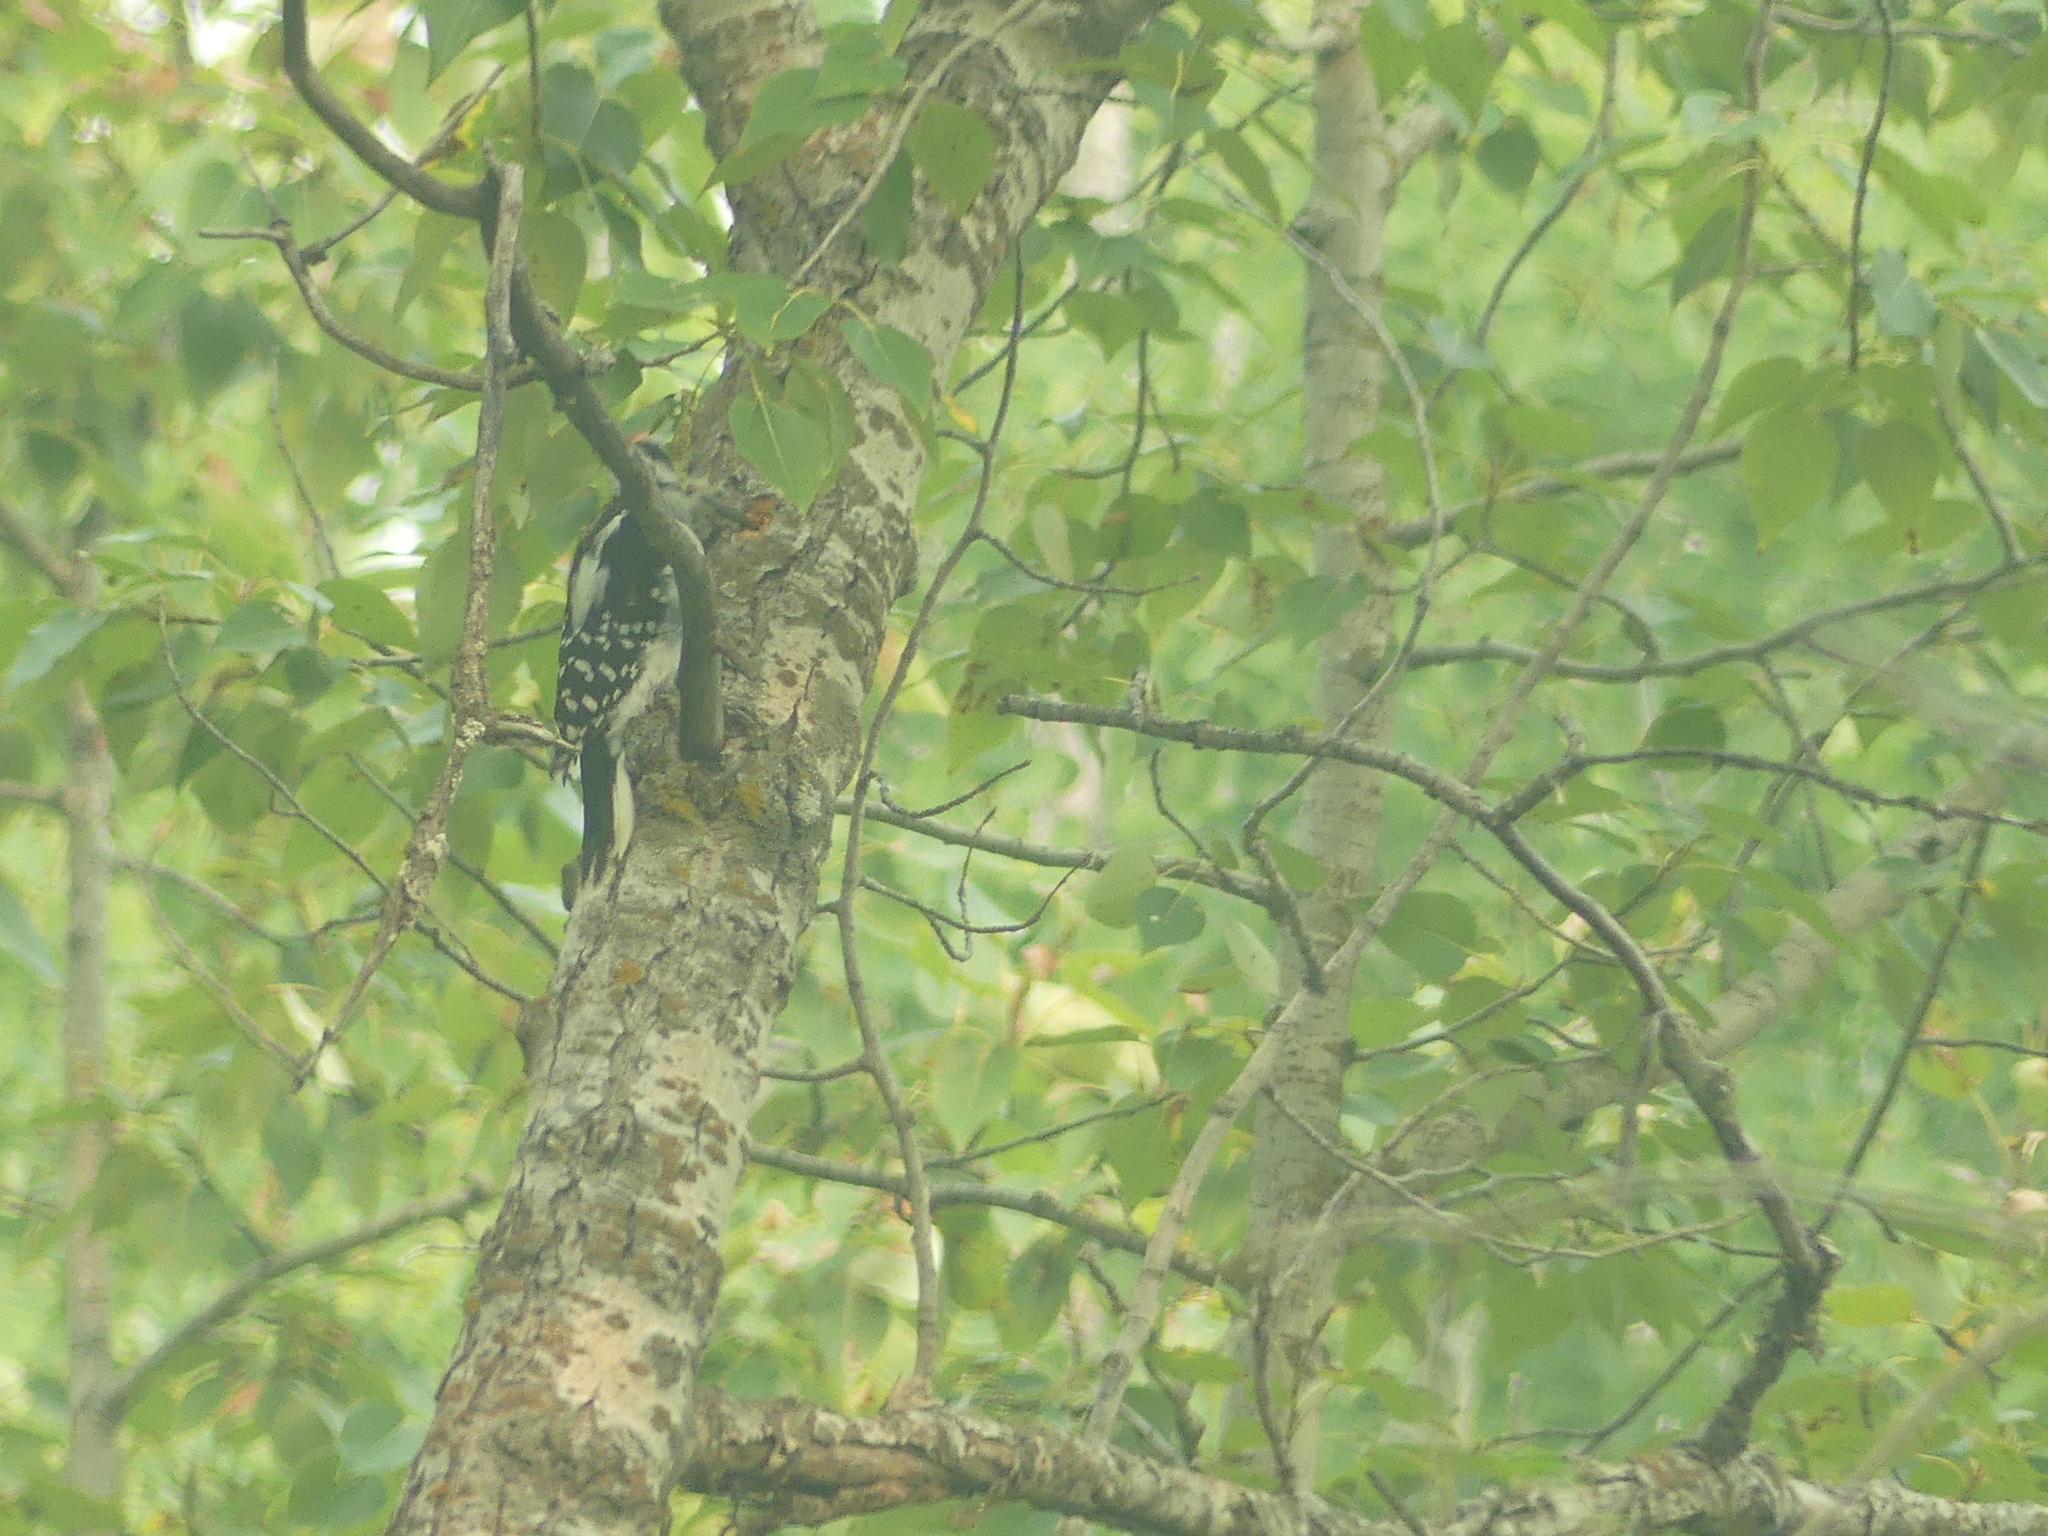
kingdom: Animalia
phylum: Chordata
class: Aves
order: Piciformes
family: Picidae
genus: Leuconotopicus
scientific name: Leuconotopicus villosus
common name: Hairy woodpecker
